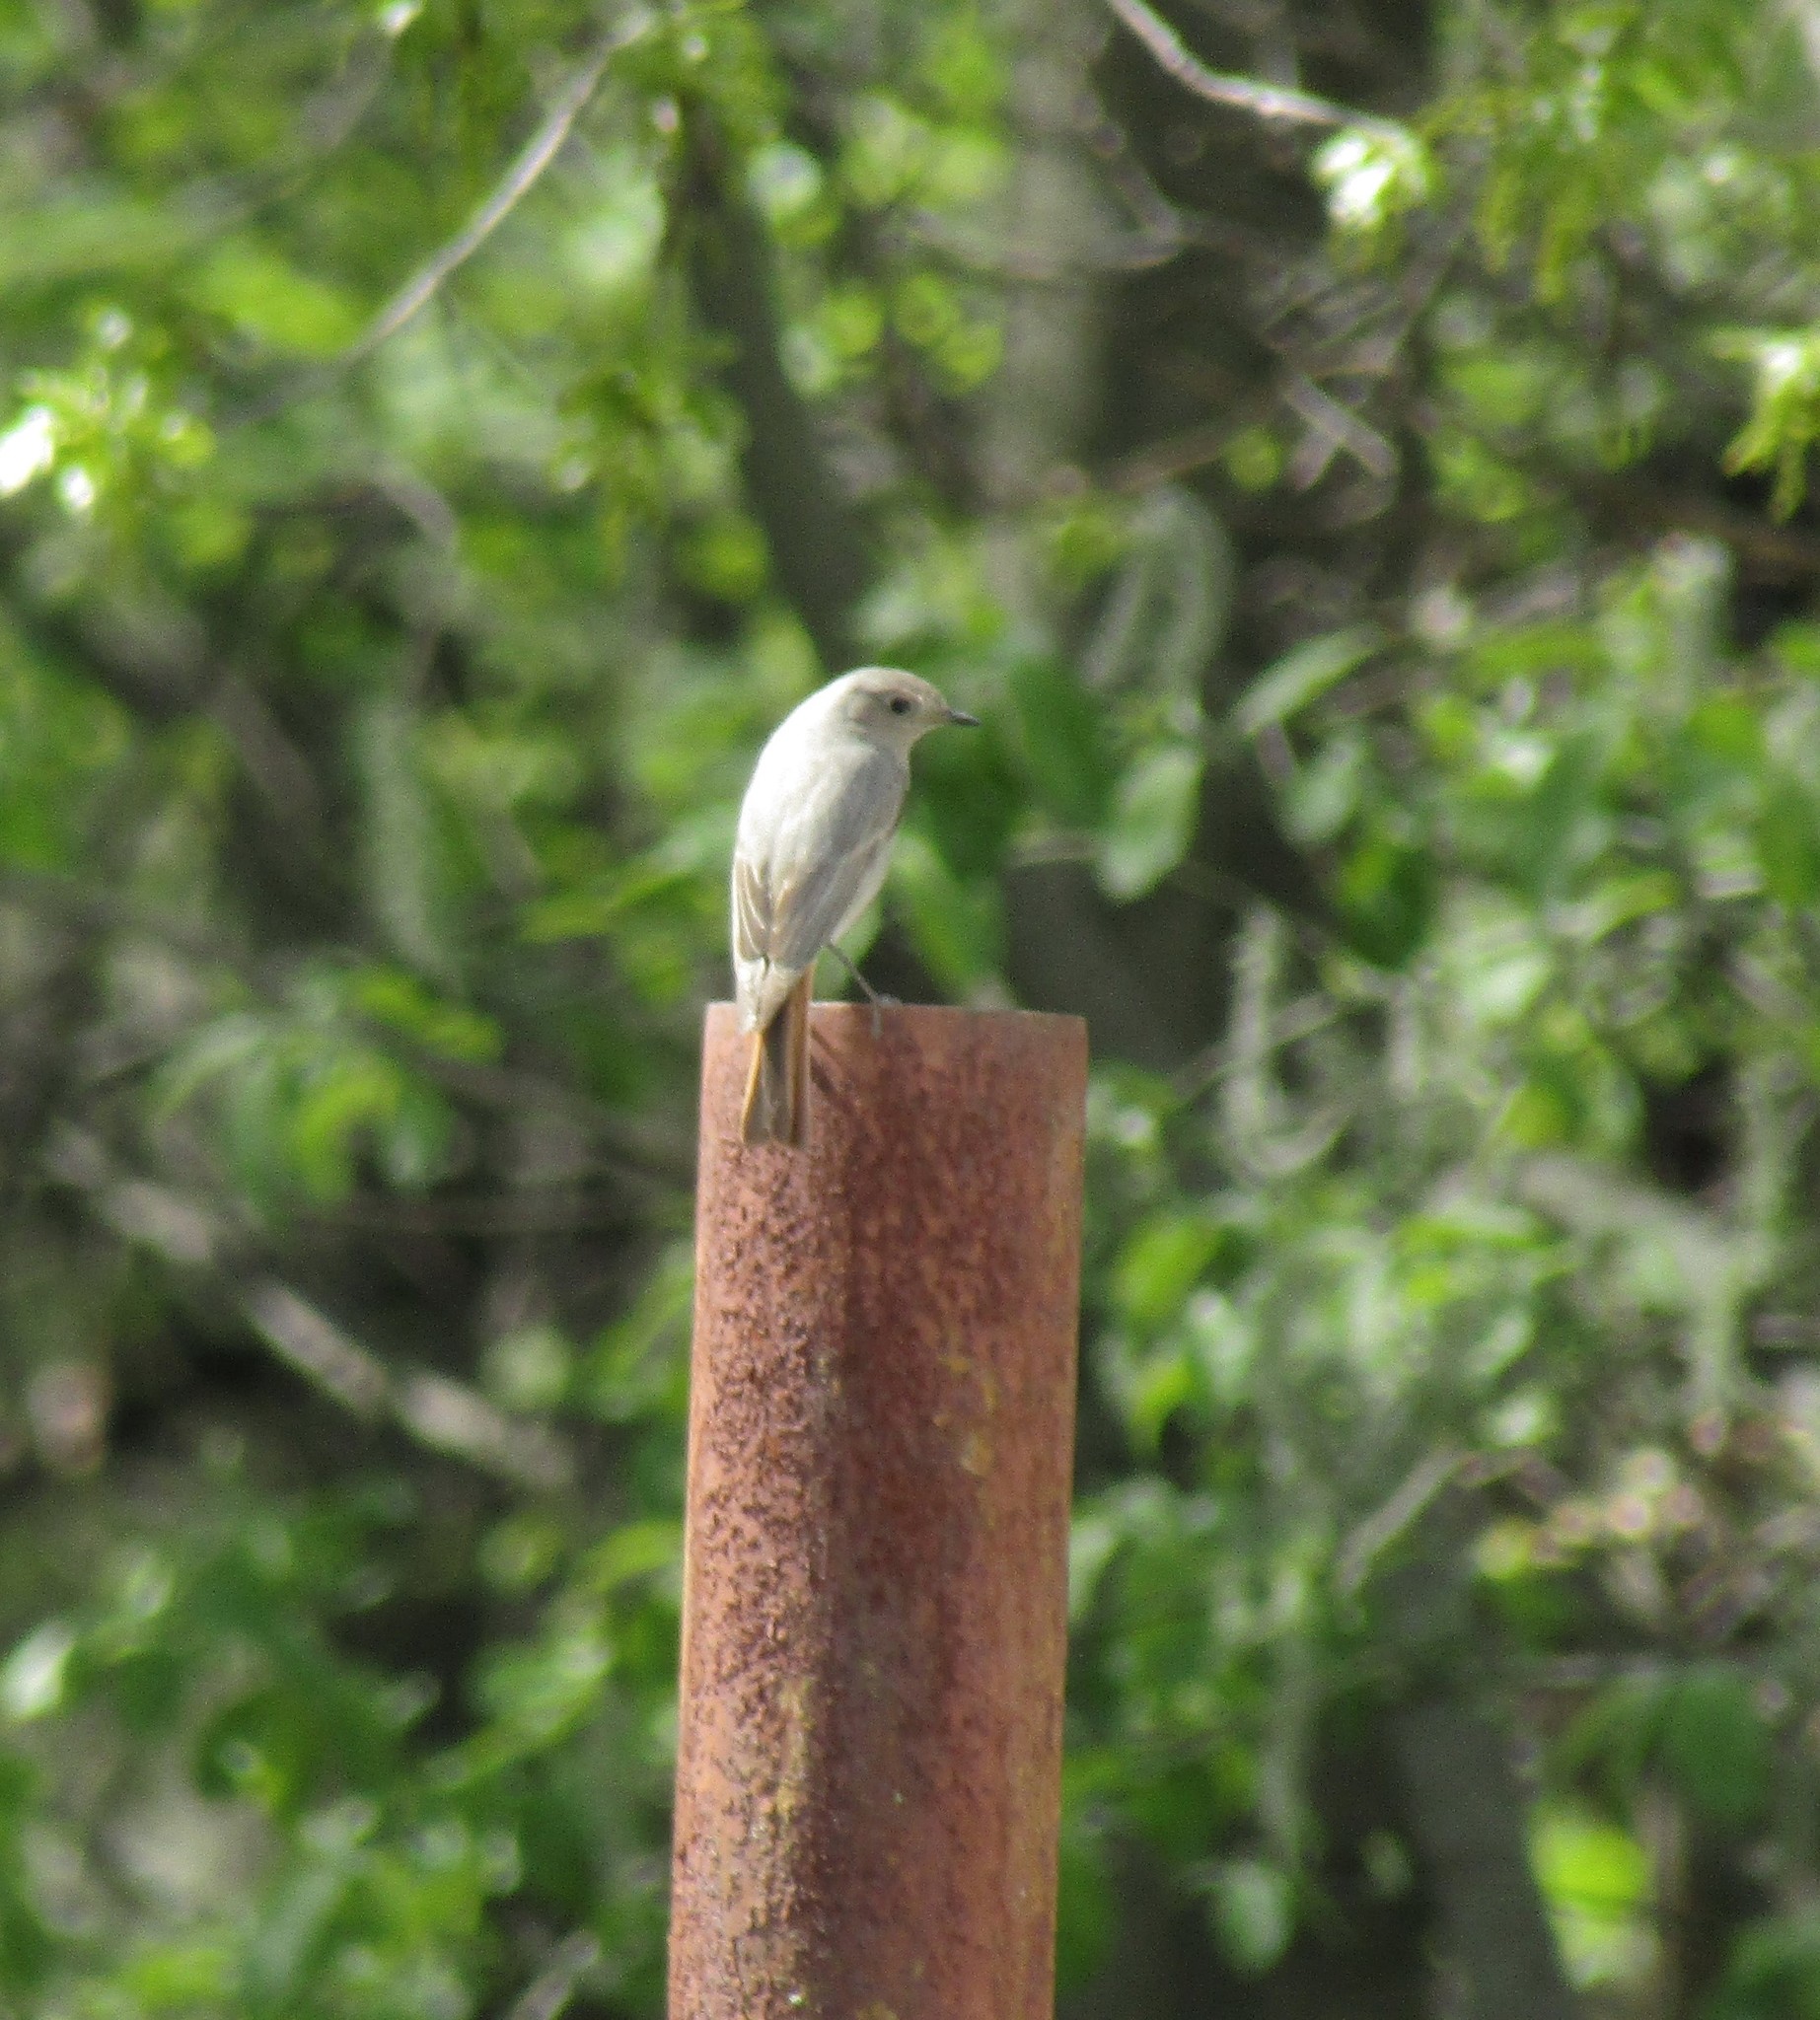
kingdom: Animalia
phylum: Chordata
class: Aves
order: Passeriformes
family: Muscicapidae
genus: Phoenicurus
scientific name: Phoenicurus ochruros
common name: Black redstart
